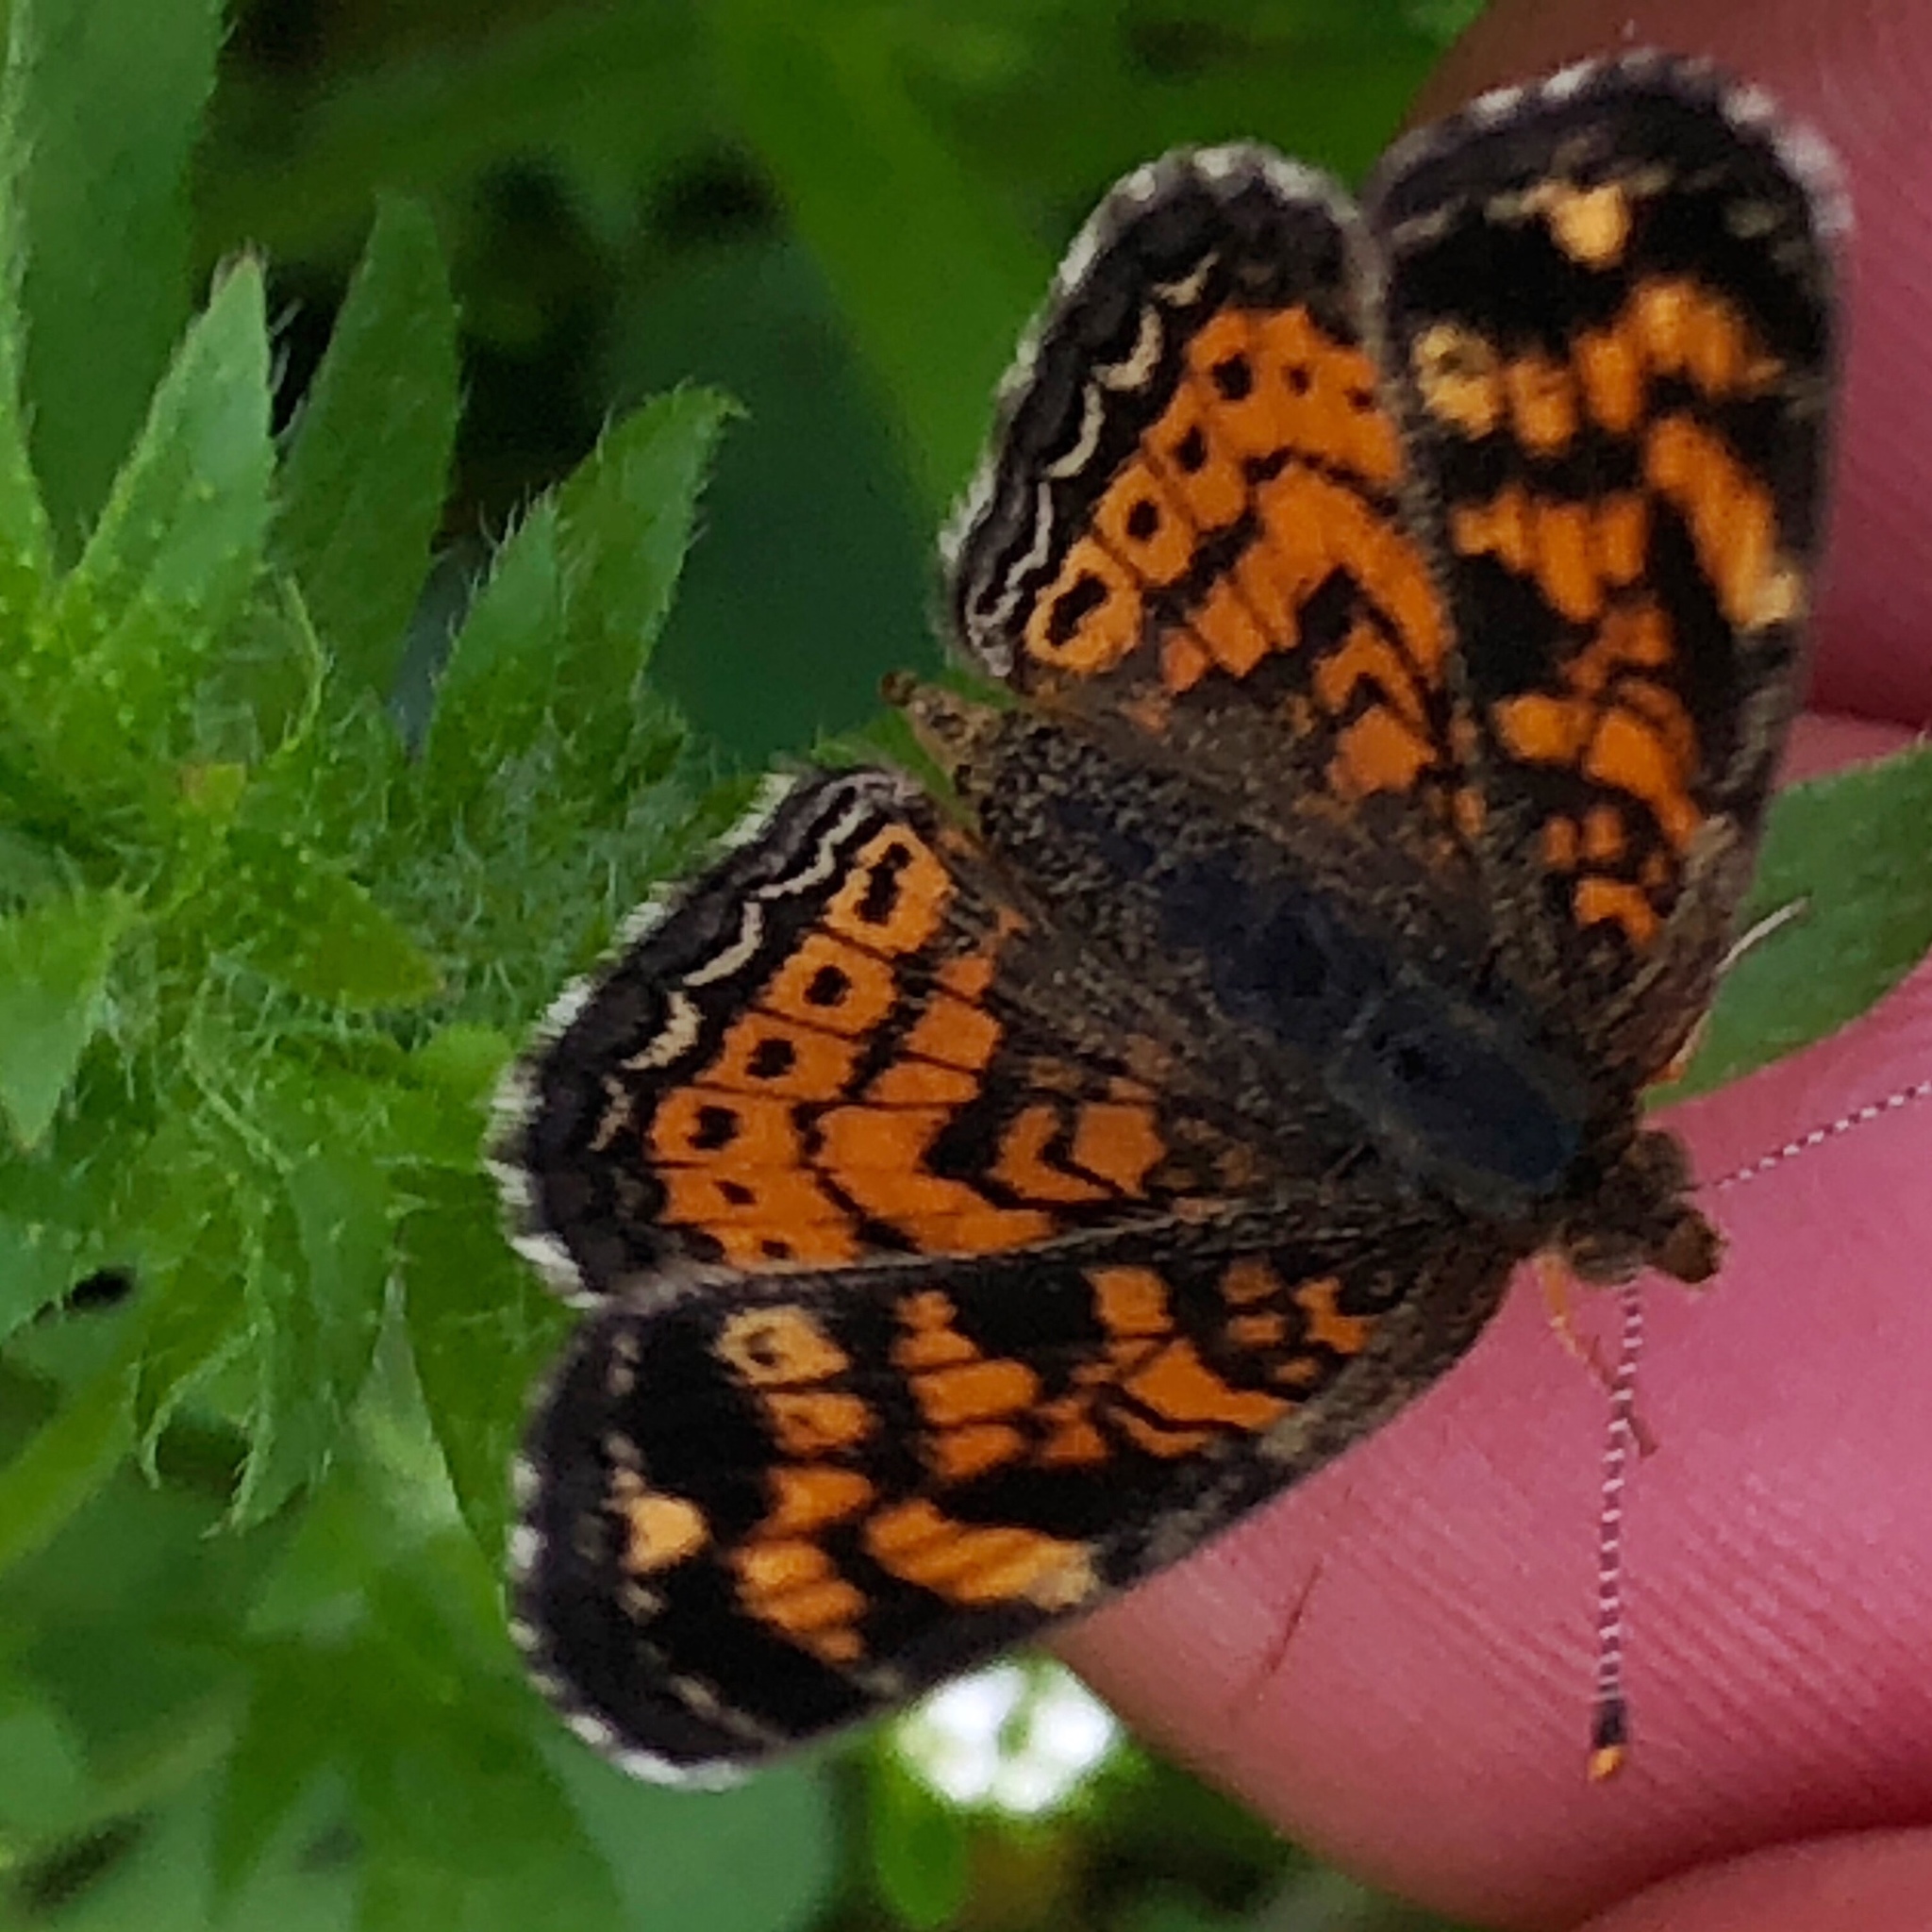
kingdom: Animalia
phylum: Arthropoda
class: Insecta
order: Lepidoptera
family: Nymphalidae
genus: Phyciodes
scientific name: Phyciodes tharos
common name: Pearl crescent
